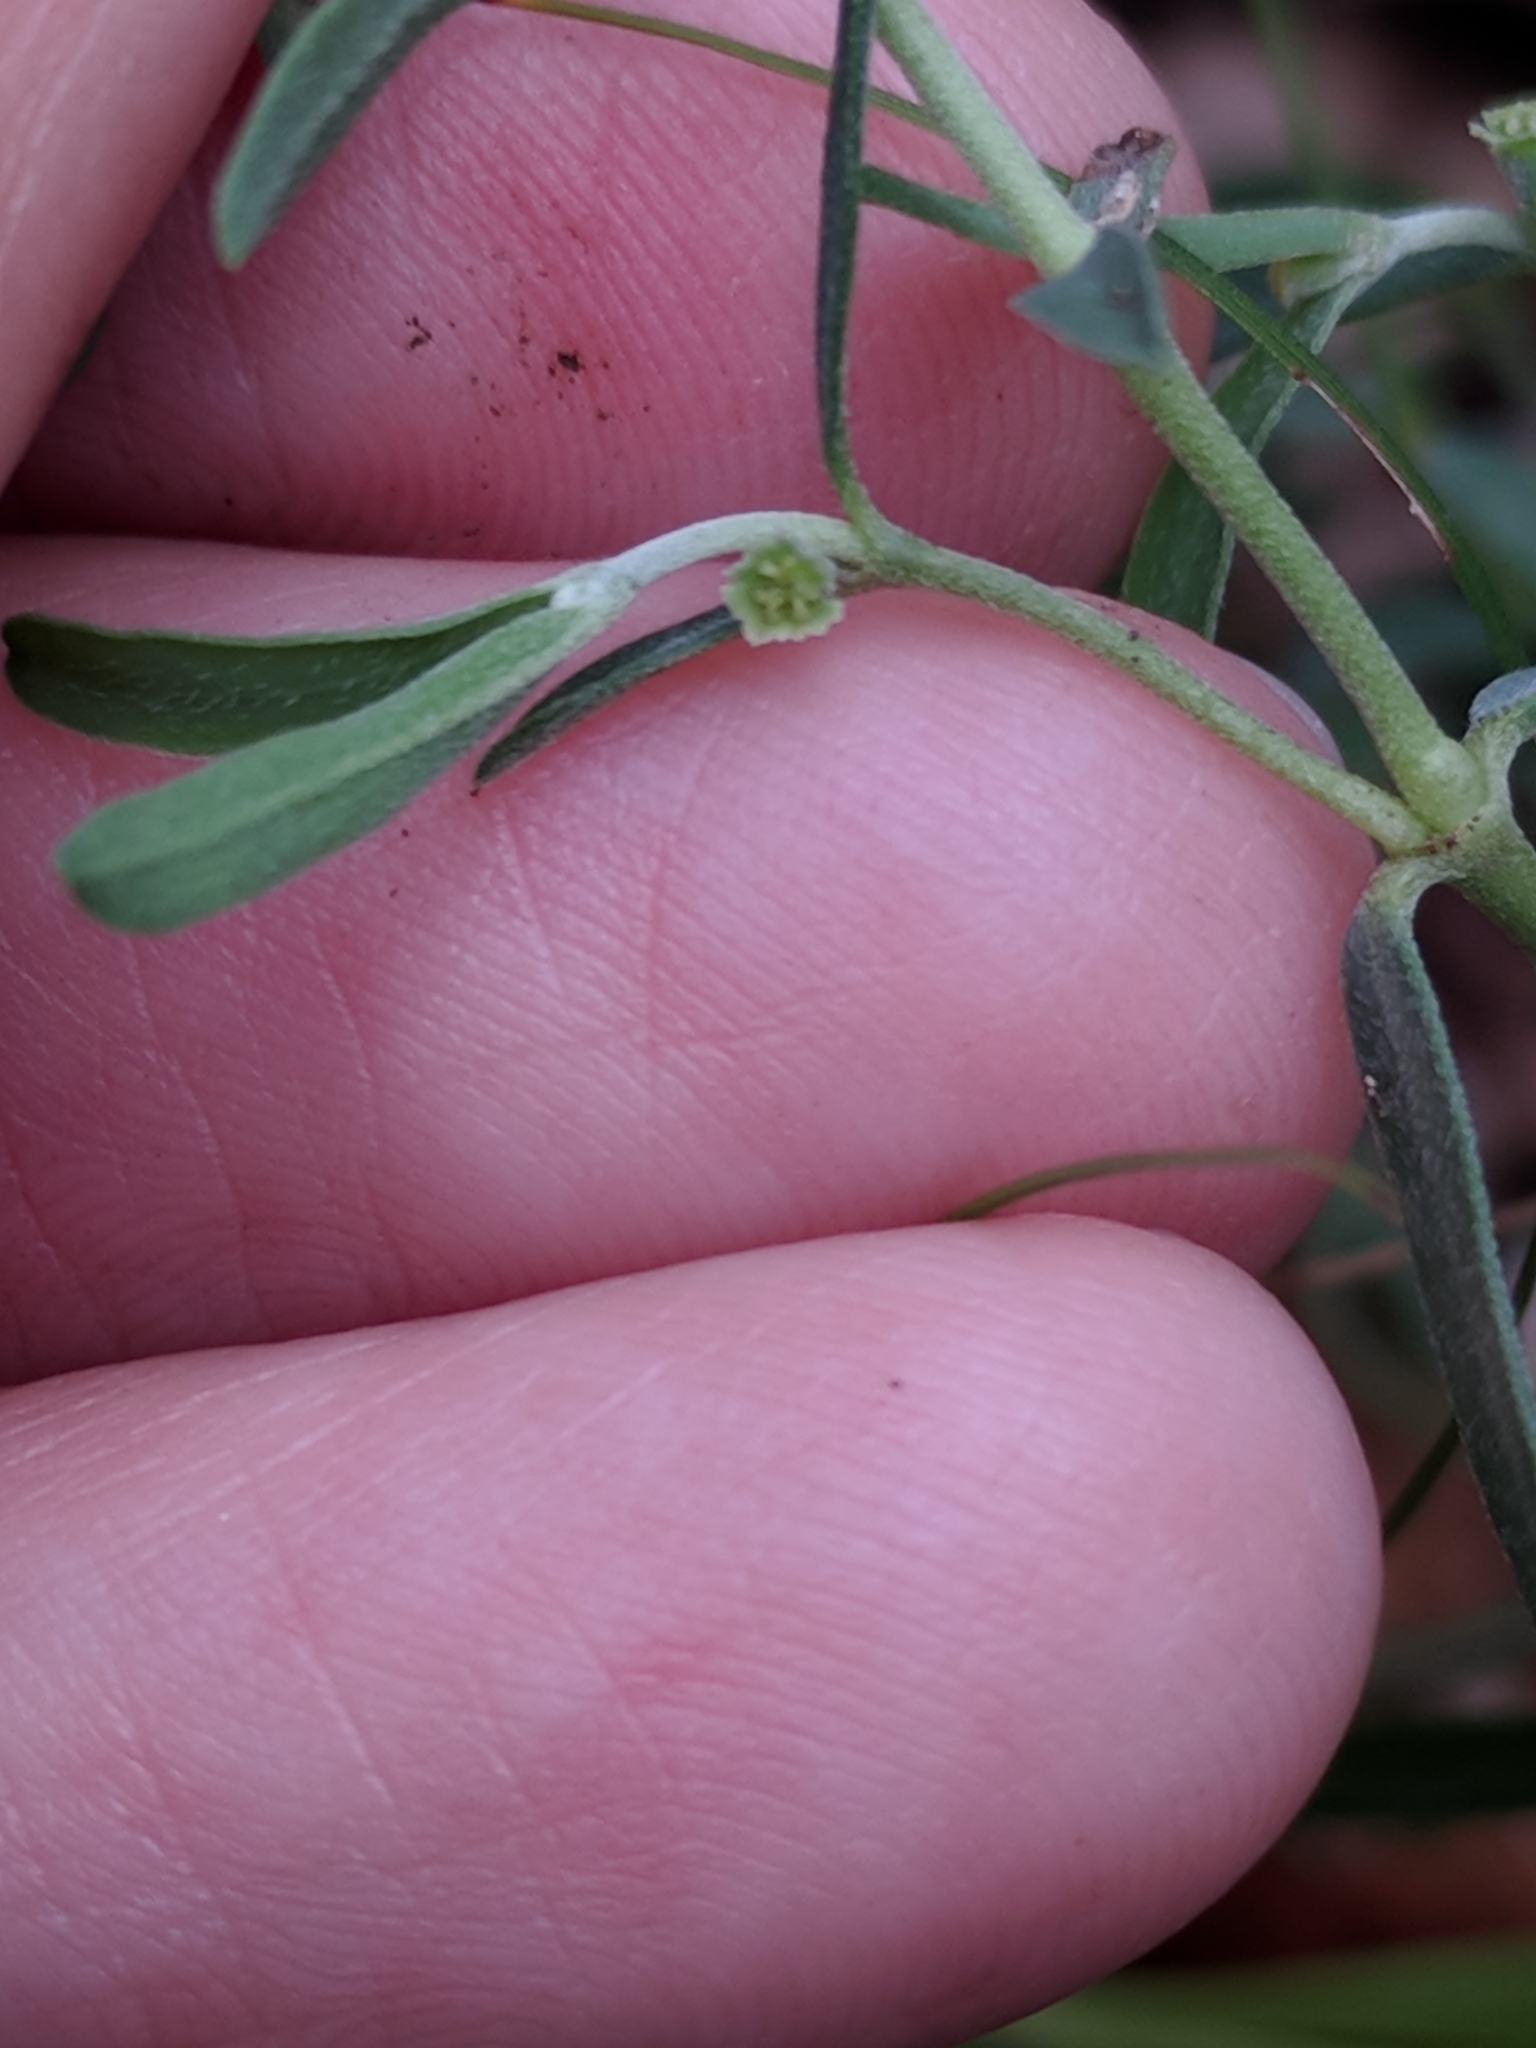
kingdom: Plantae
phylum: Tracheophyta
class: Magnoliopsida
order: Malpighiales
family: Euphorbiaceae
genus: Euphorbia
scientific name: Euphorbia angusta
